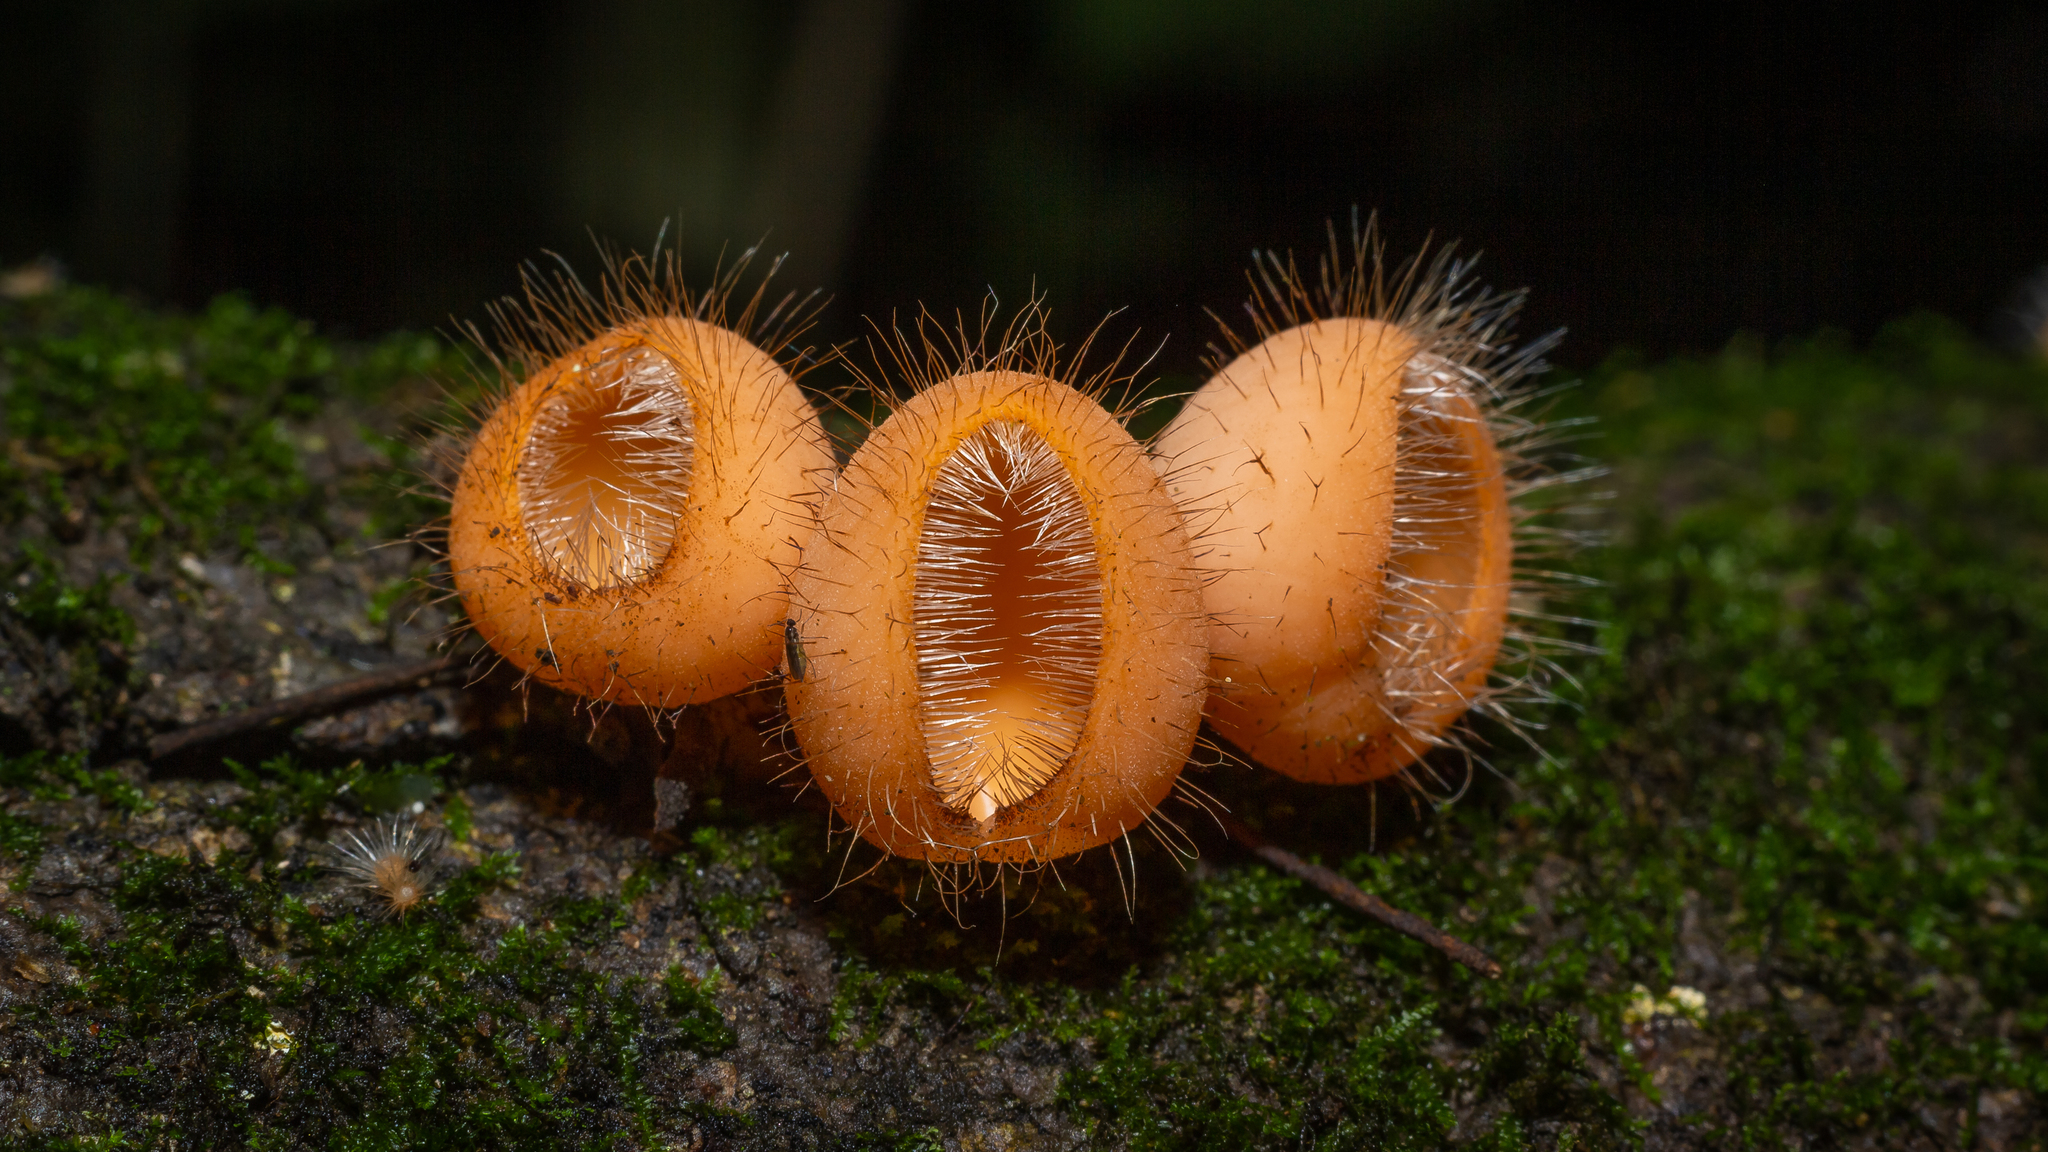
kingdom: Fungi
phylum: Ascomycota
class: Pezizomycetes
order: Pezizales
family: Sarcoscyphaceae
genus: Cookeina
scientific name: Cookeina tricholoma
